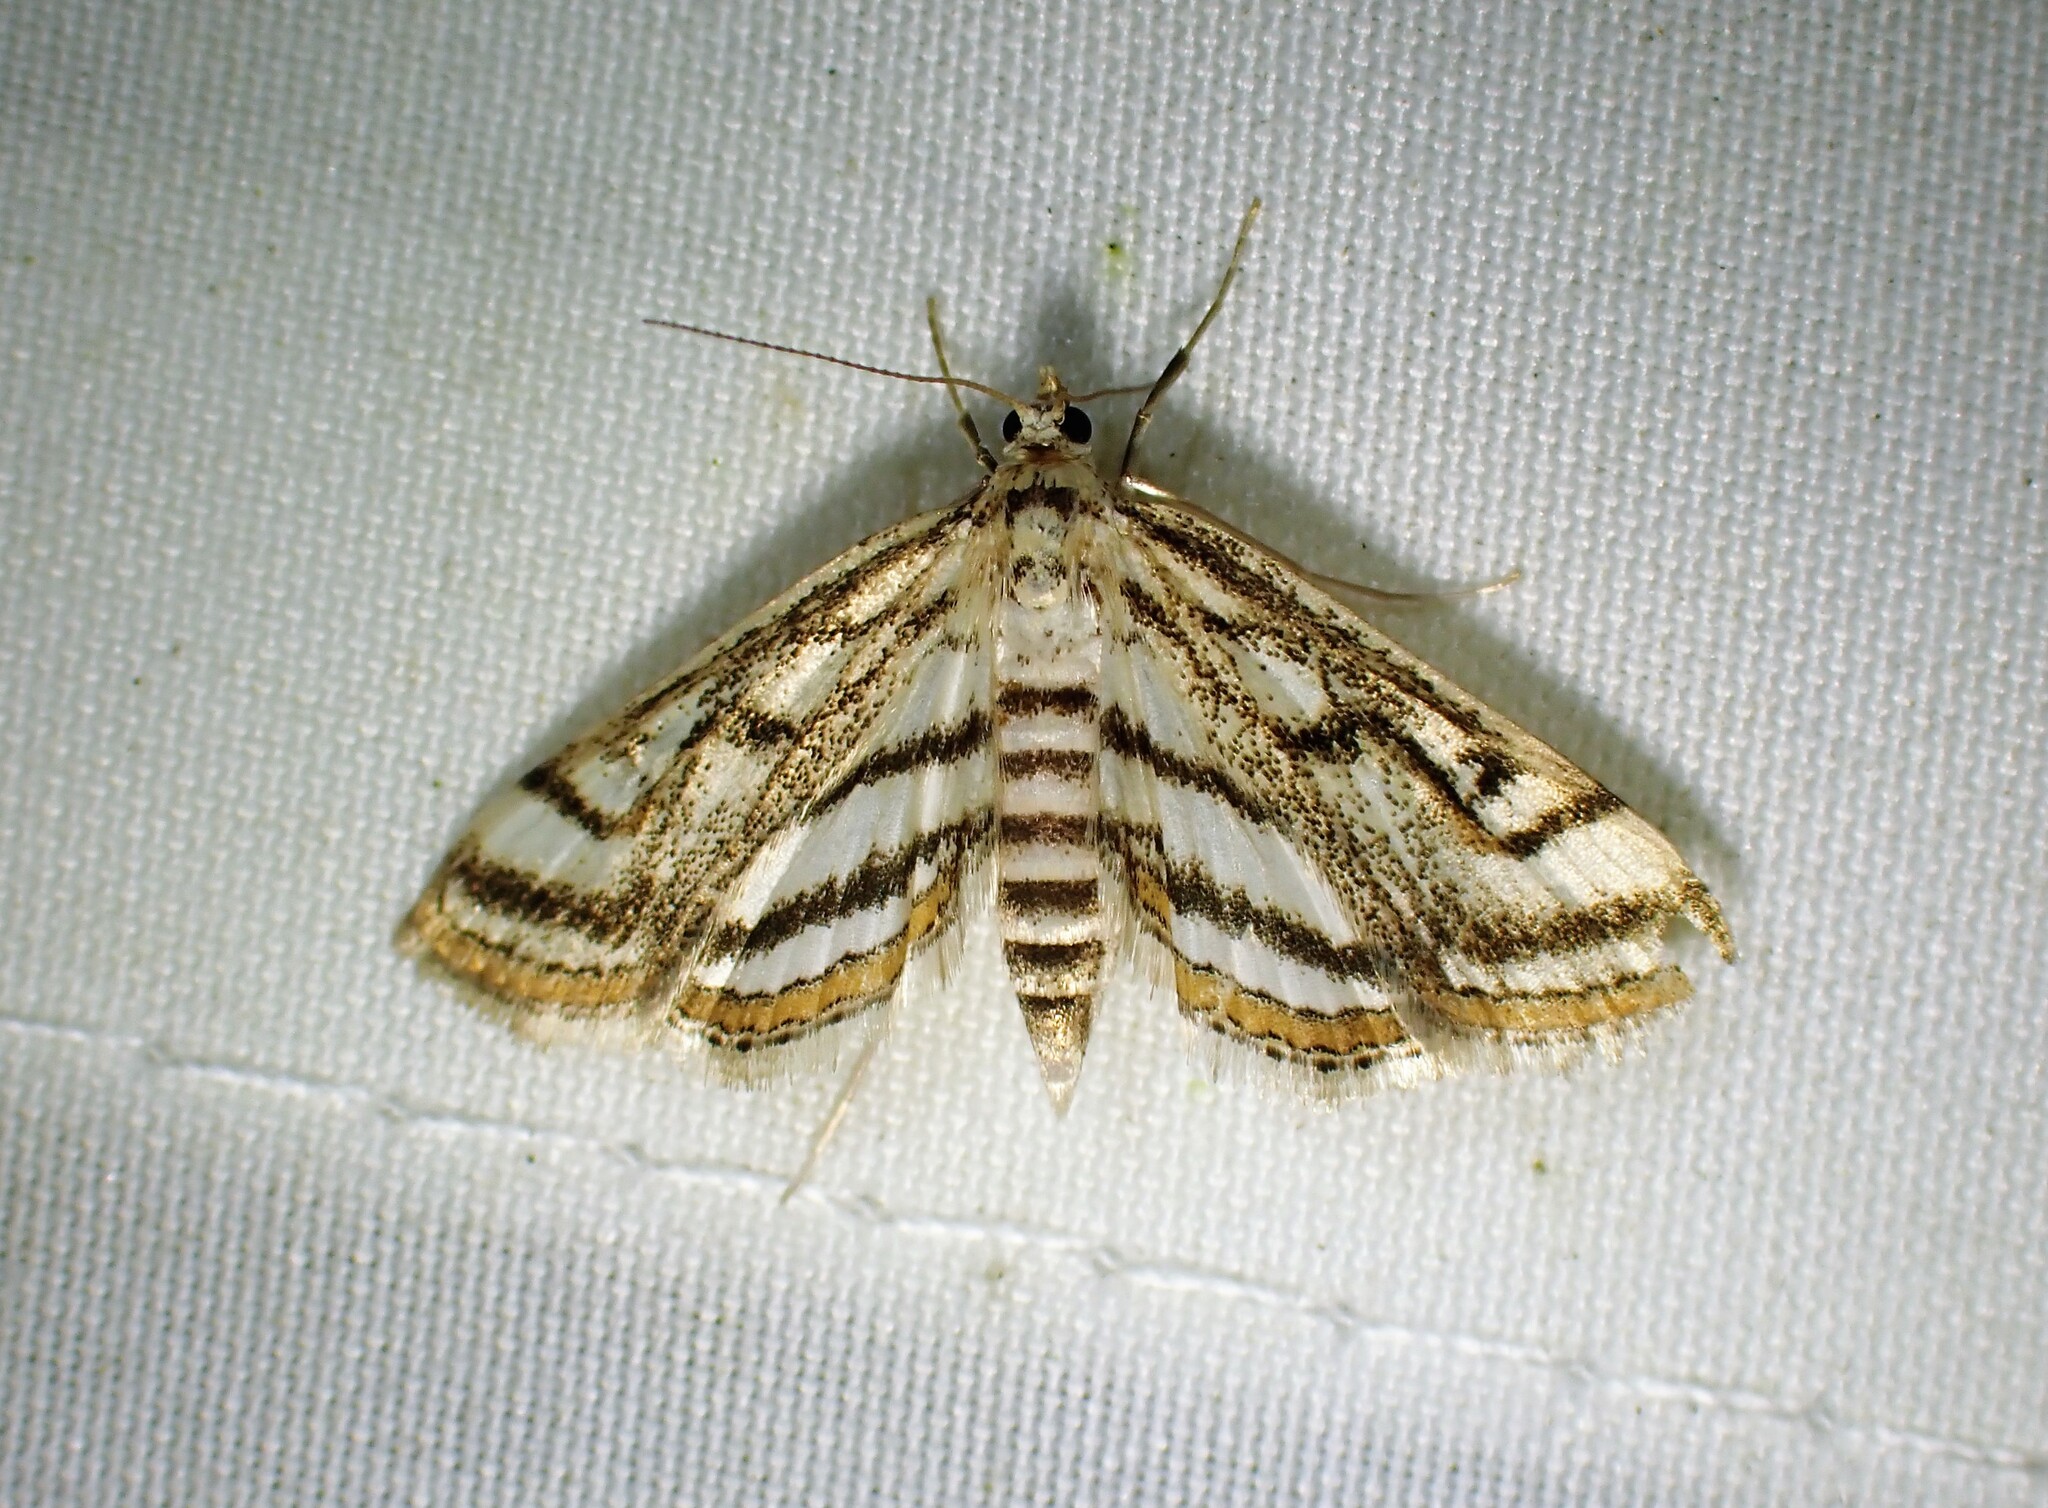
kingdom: Animalia
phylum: Arthropoda
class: Insecta
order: Lepidoptera
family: Crambidae
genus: Parapoynx
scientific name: Parapoynx badiusalis
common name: Chestnut-marked pondweed moth
